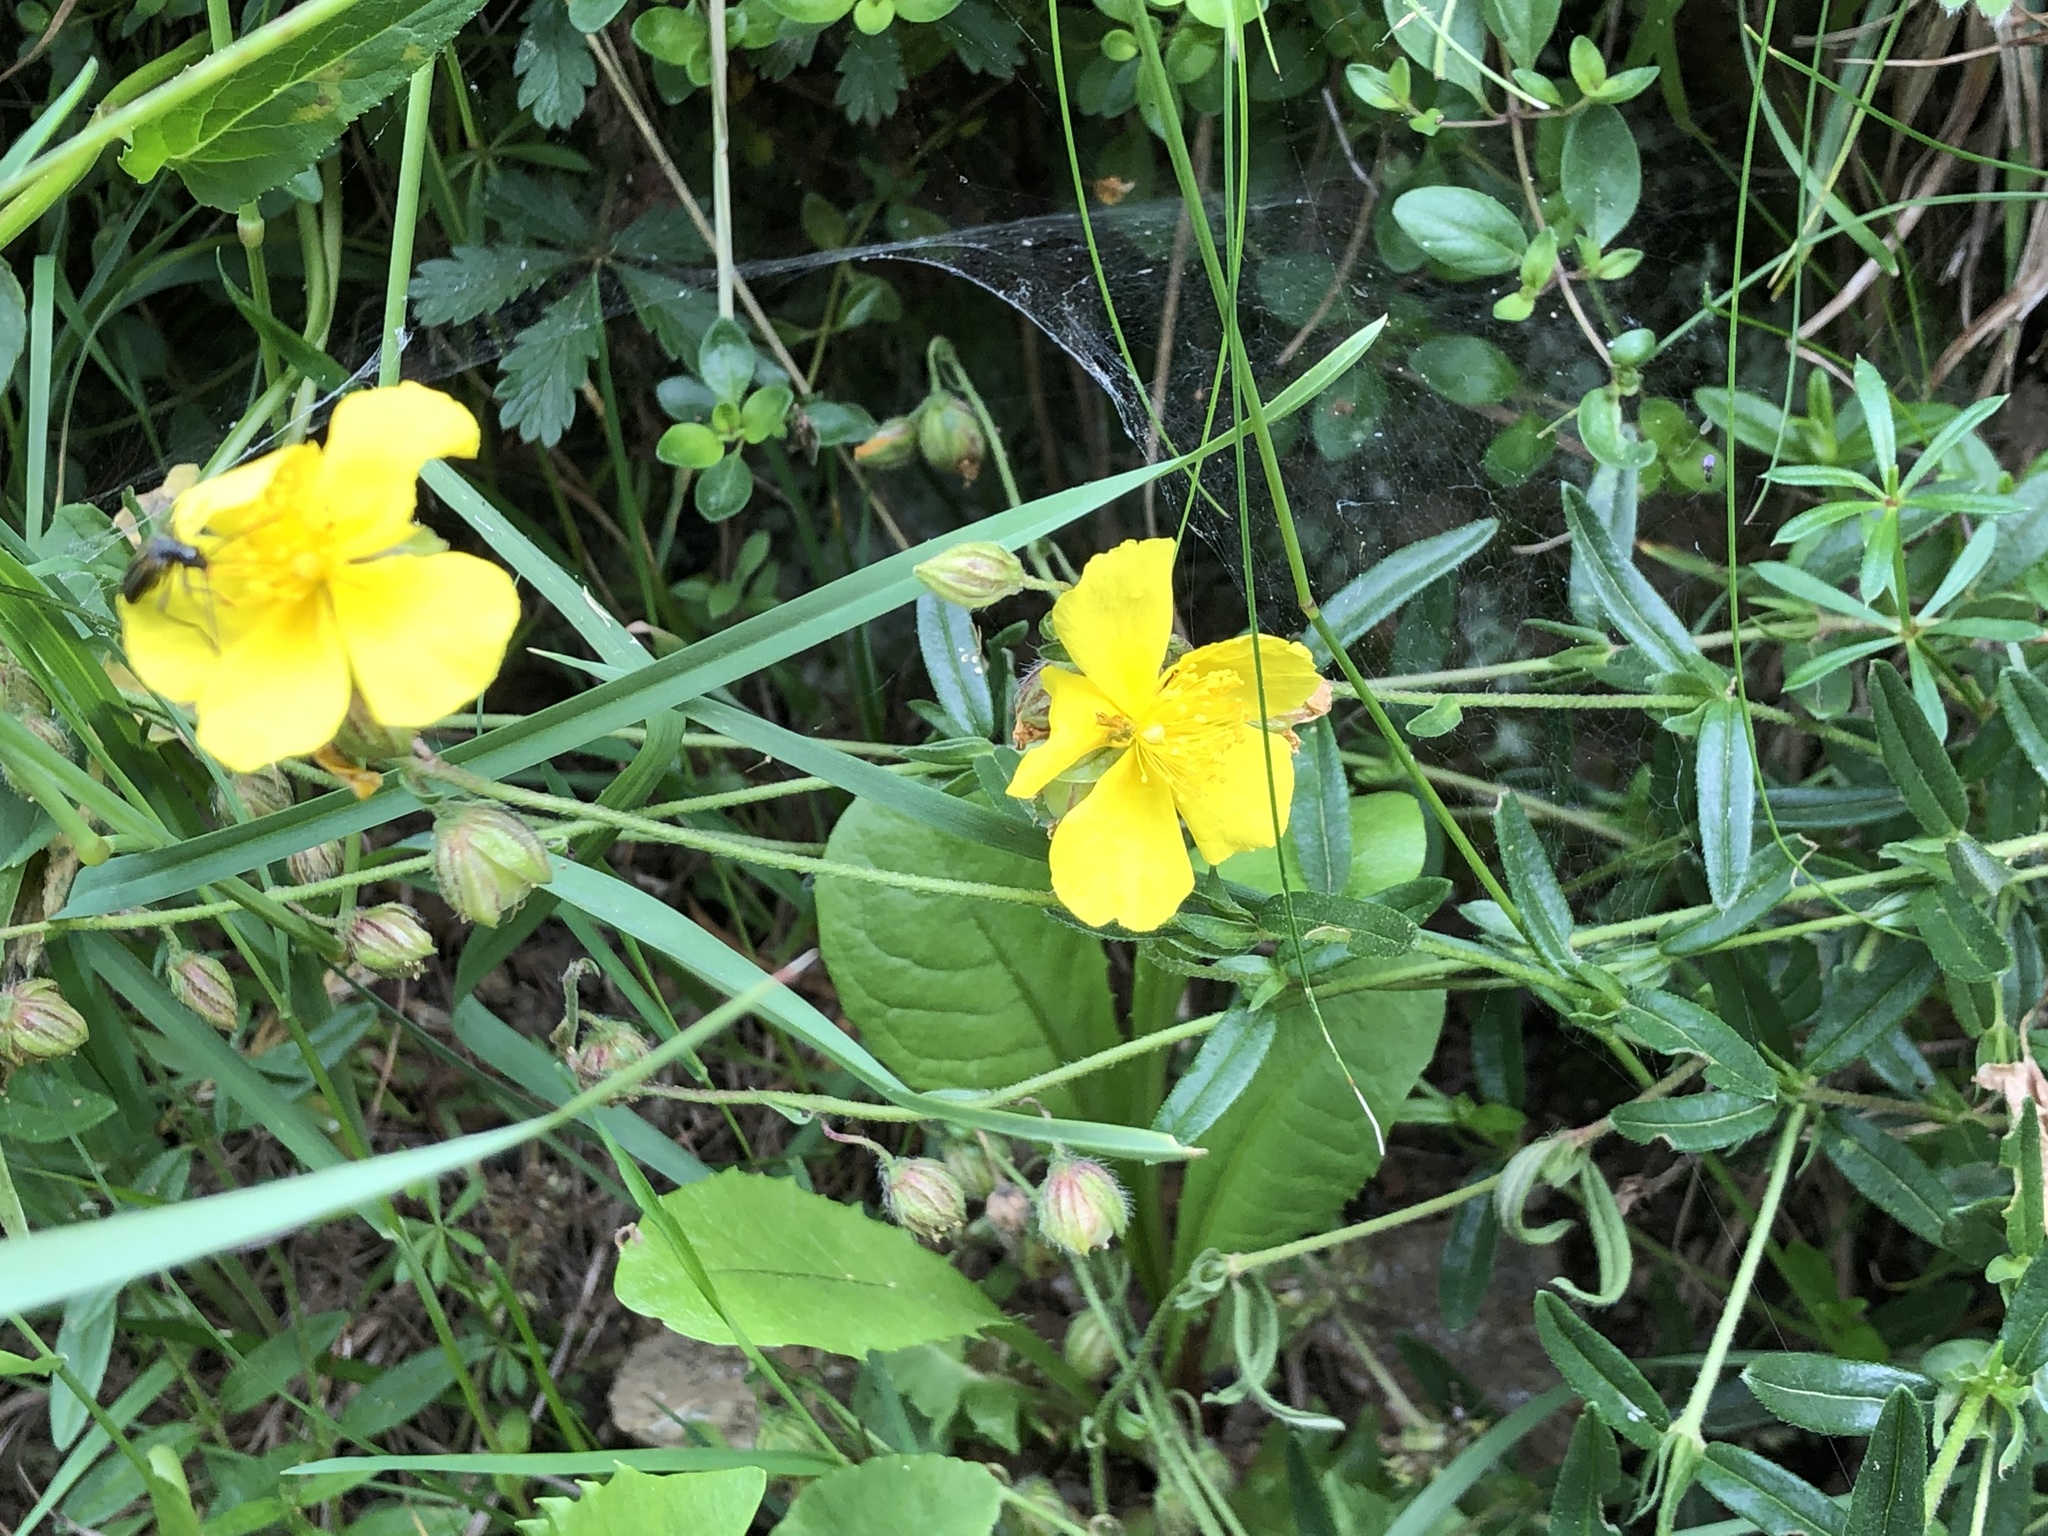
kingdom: Plantae
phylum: Tracheophyta
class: Magnoliopsida
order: Malvales
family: Cistaceae
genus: Helianthemum
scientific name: Helianthemum nummularium
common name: Common rock-rose
